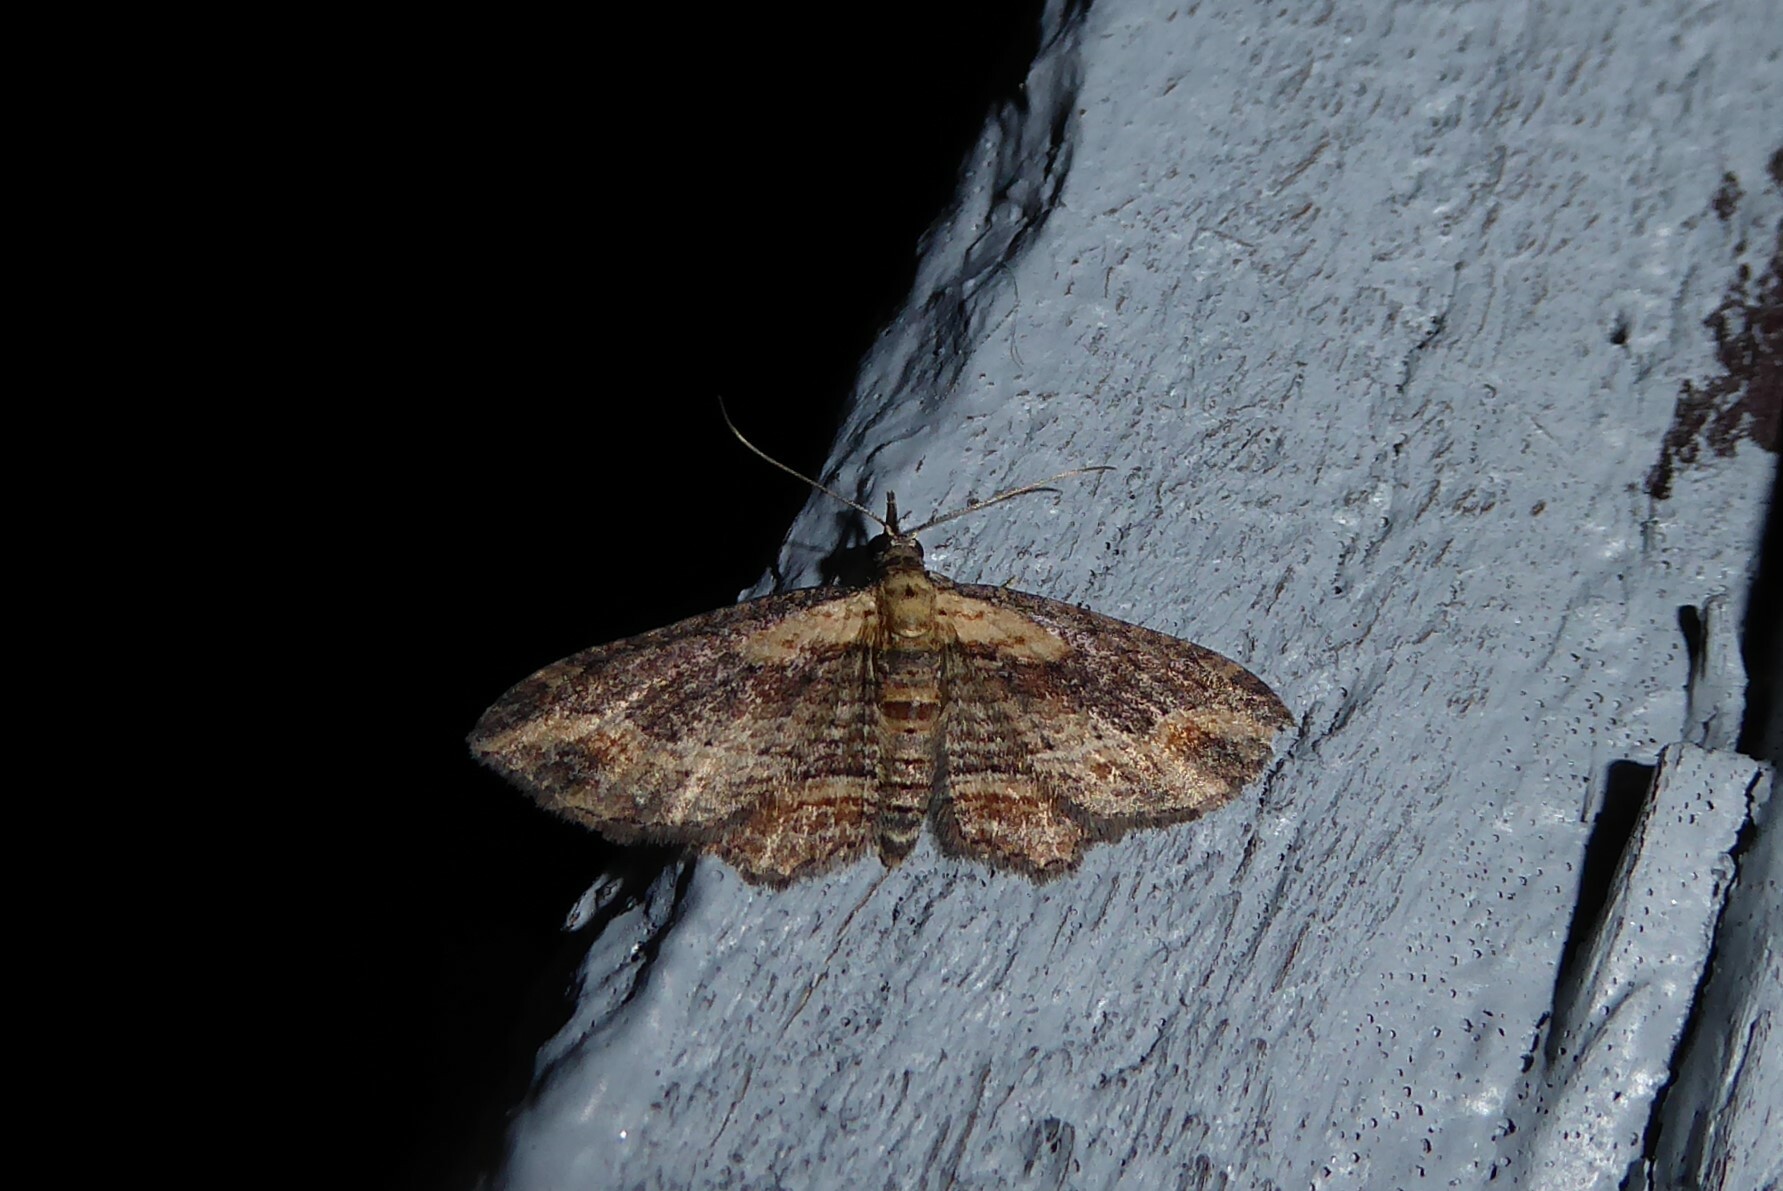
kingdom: Animalia
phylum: Arthropoda
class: Insecta
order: Lepidoptera
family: Geometridae
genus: Chloroclystis
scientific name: Chloroclystis filata
